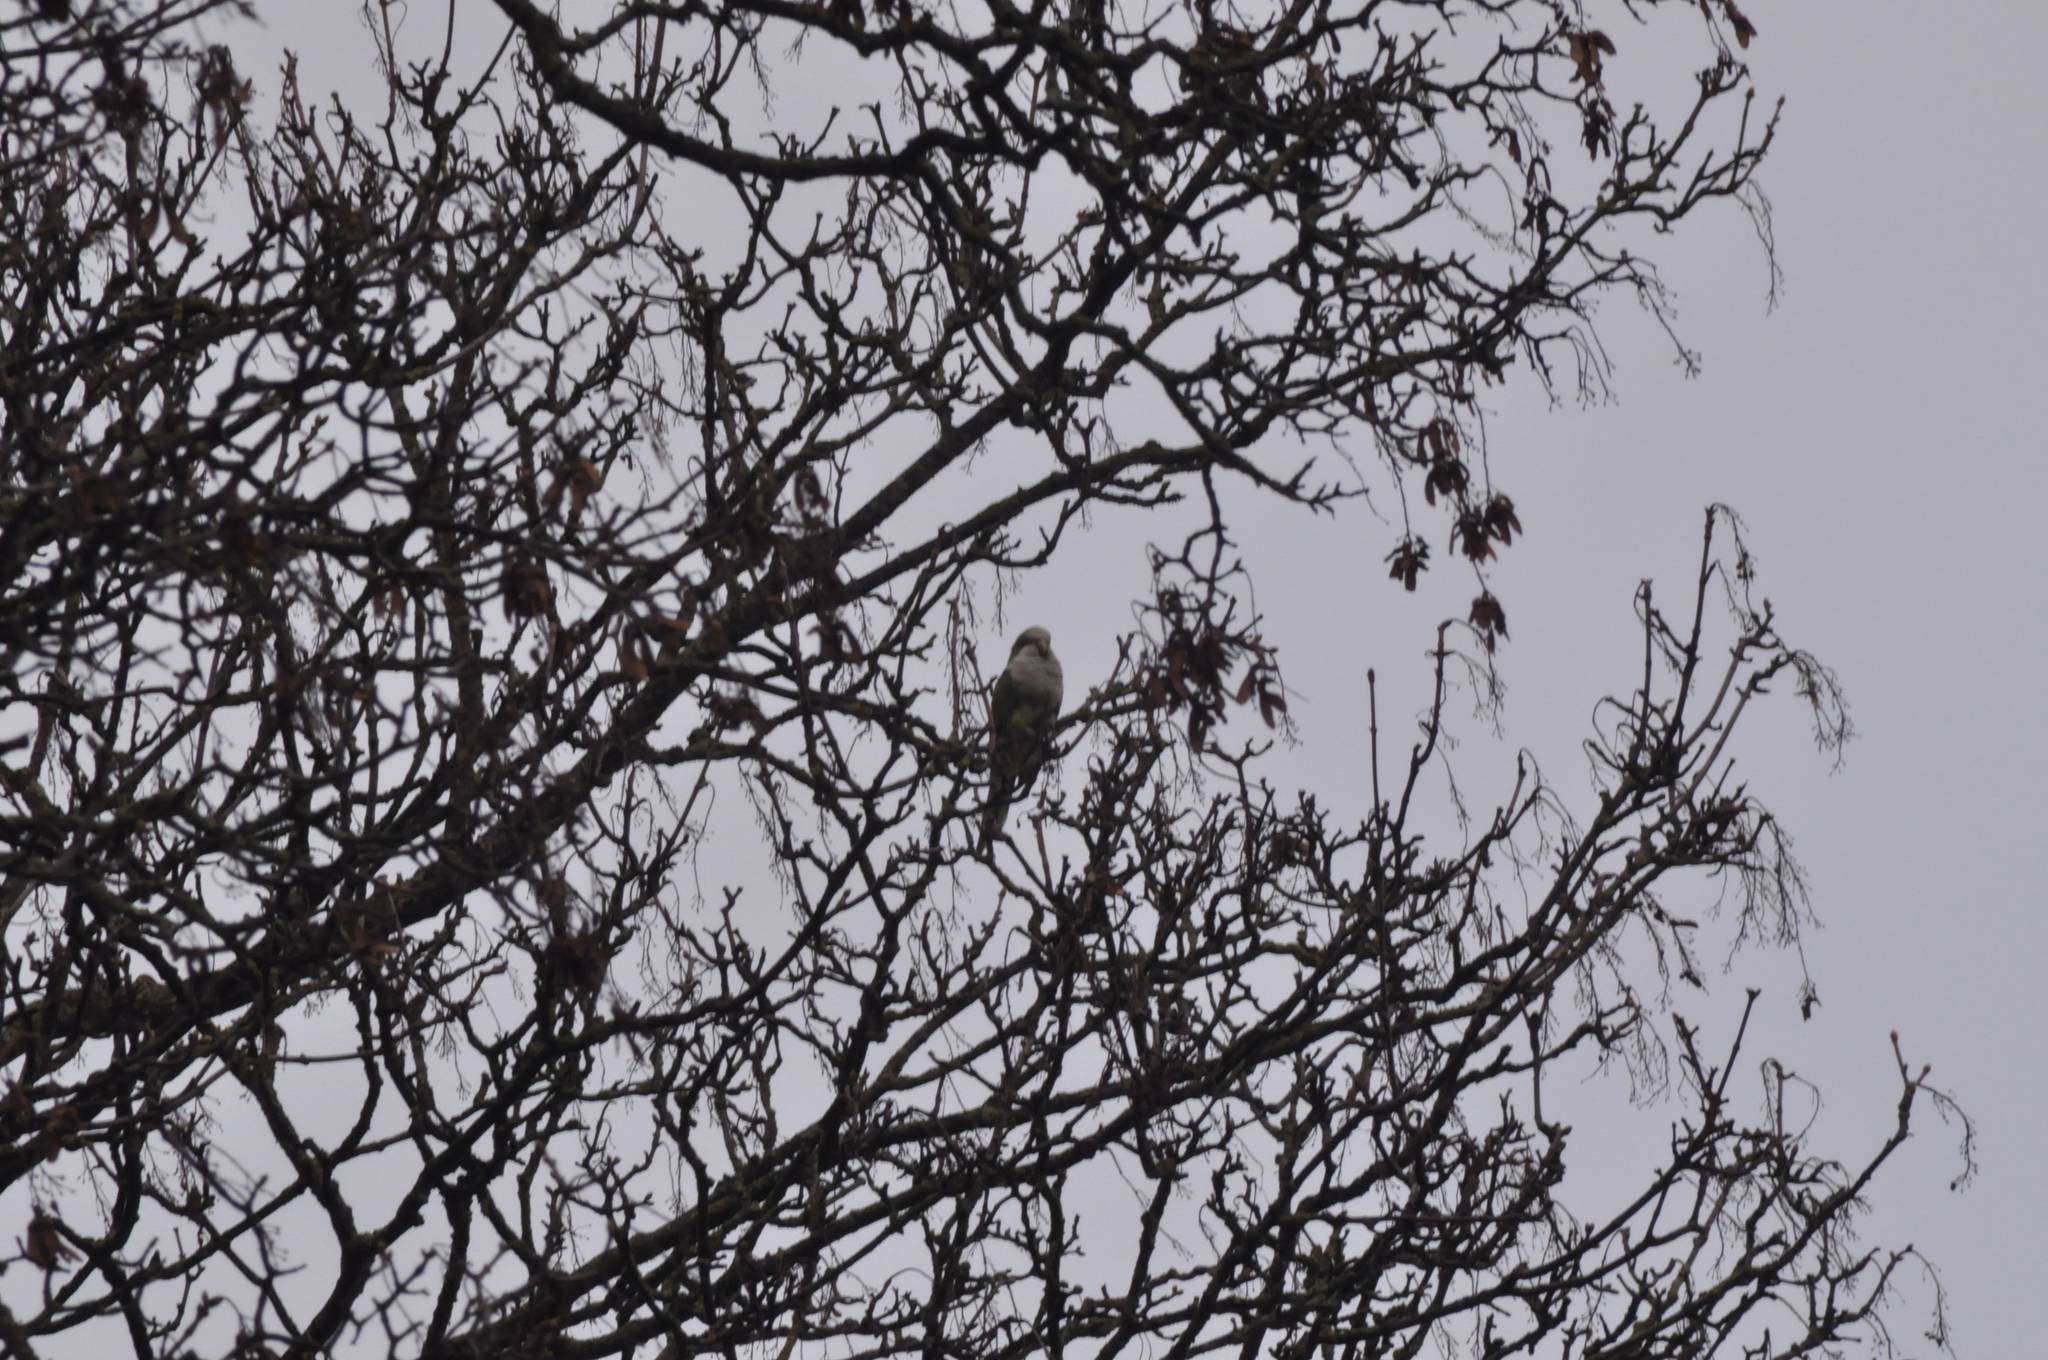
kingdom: Animalia
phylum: Chordata
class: Aves
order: Psittaciformes
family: Psittacidae
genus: Myiopsitta
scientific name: Myiopsitta monachus
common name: Monk parakeet
